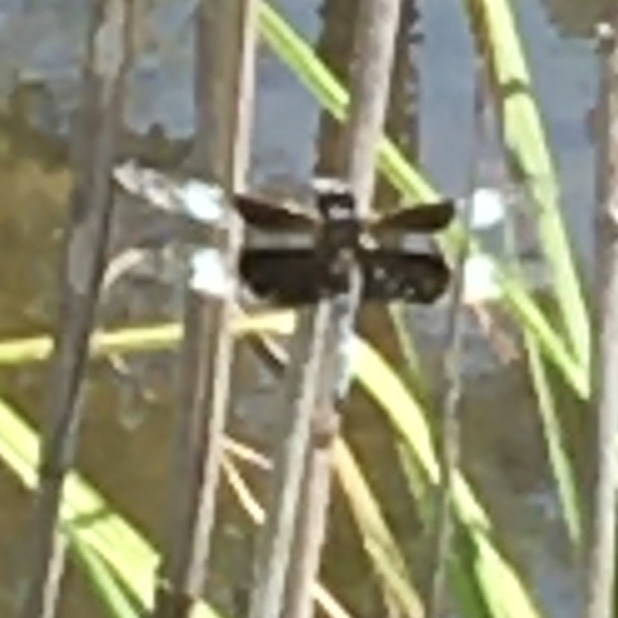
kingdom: Animalia
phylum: Arthropoda
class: Insecta
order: Odonata
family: Libellulidae
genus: Libellula
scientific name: Libellula luctuosa
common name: Widow skimmer
